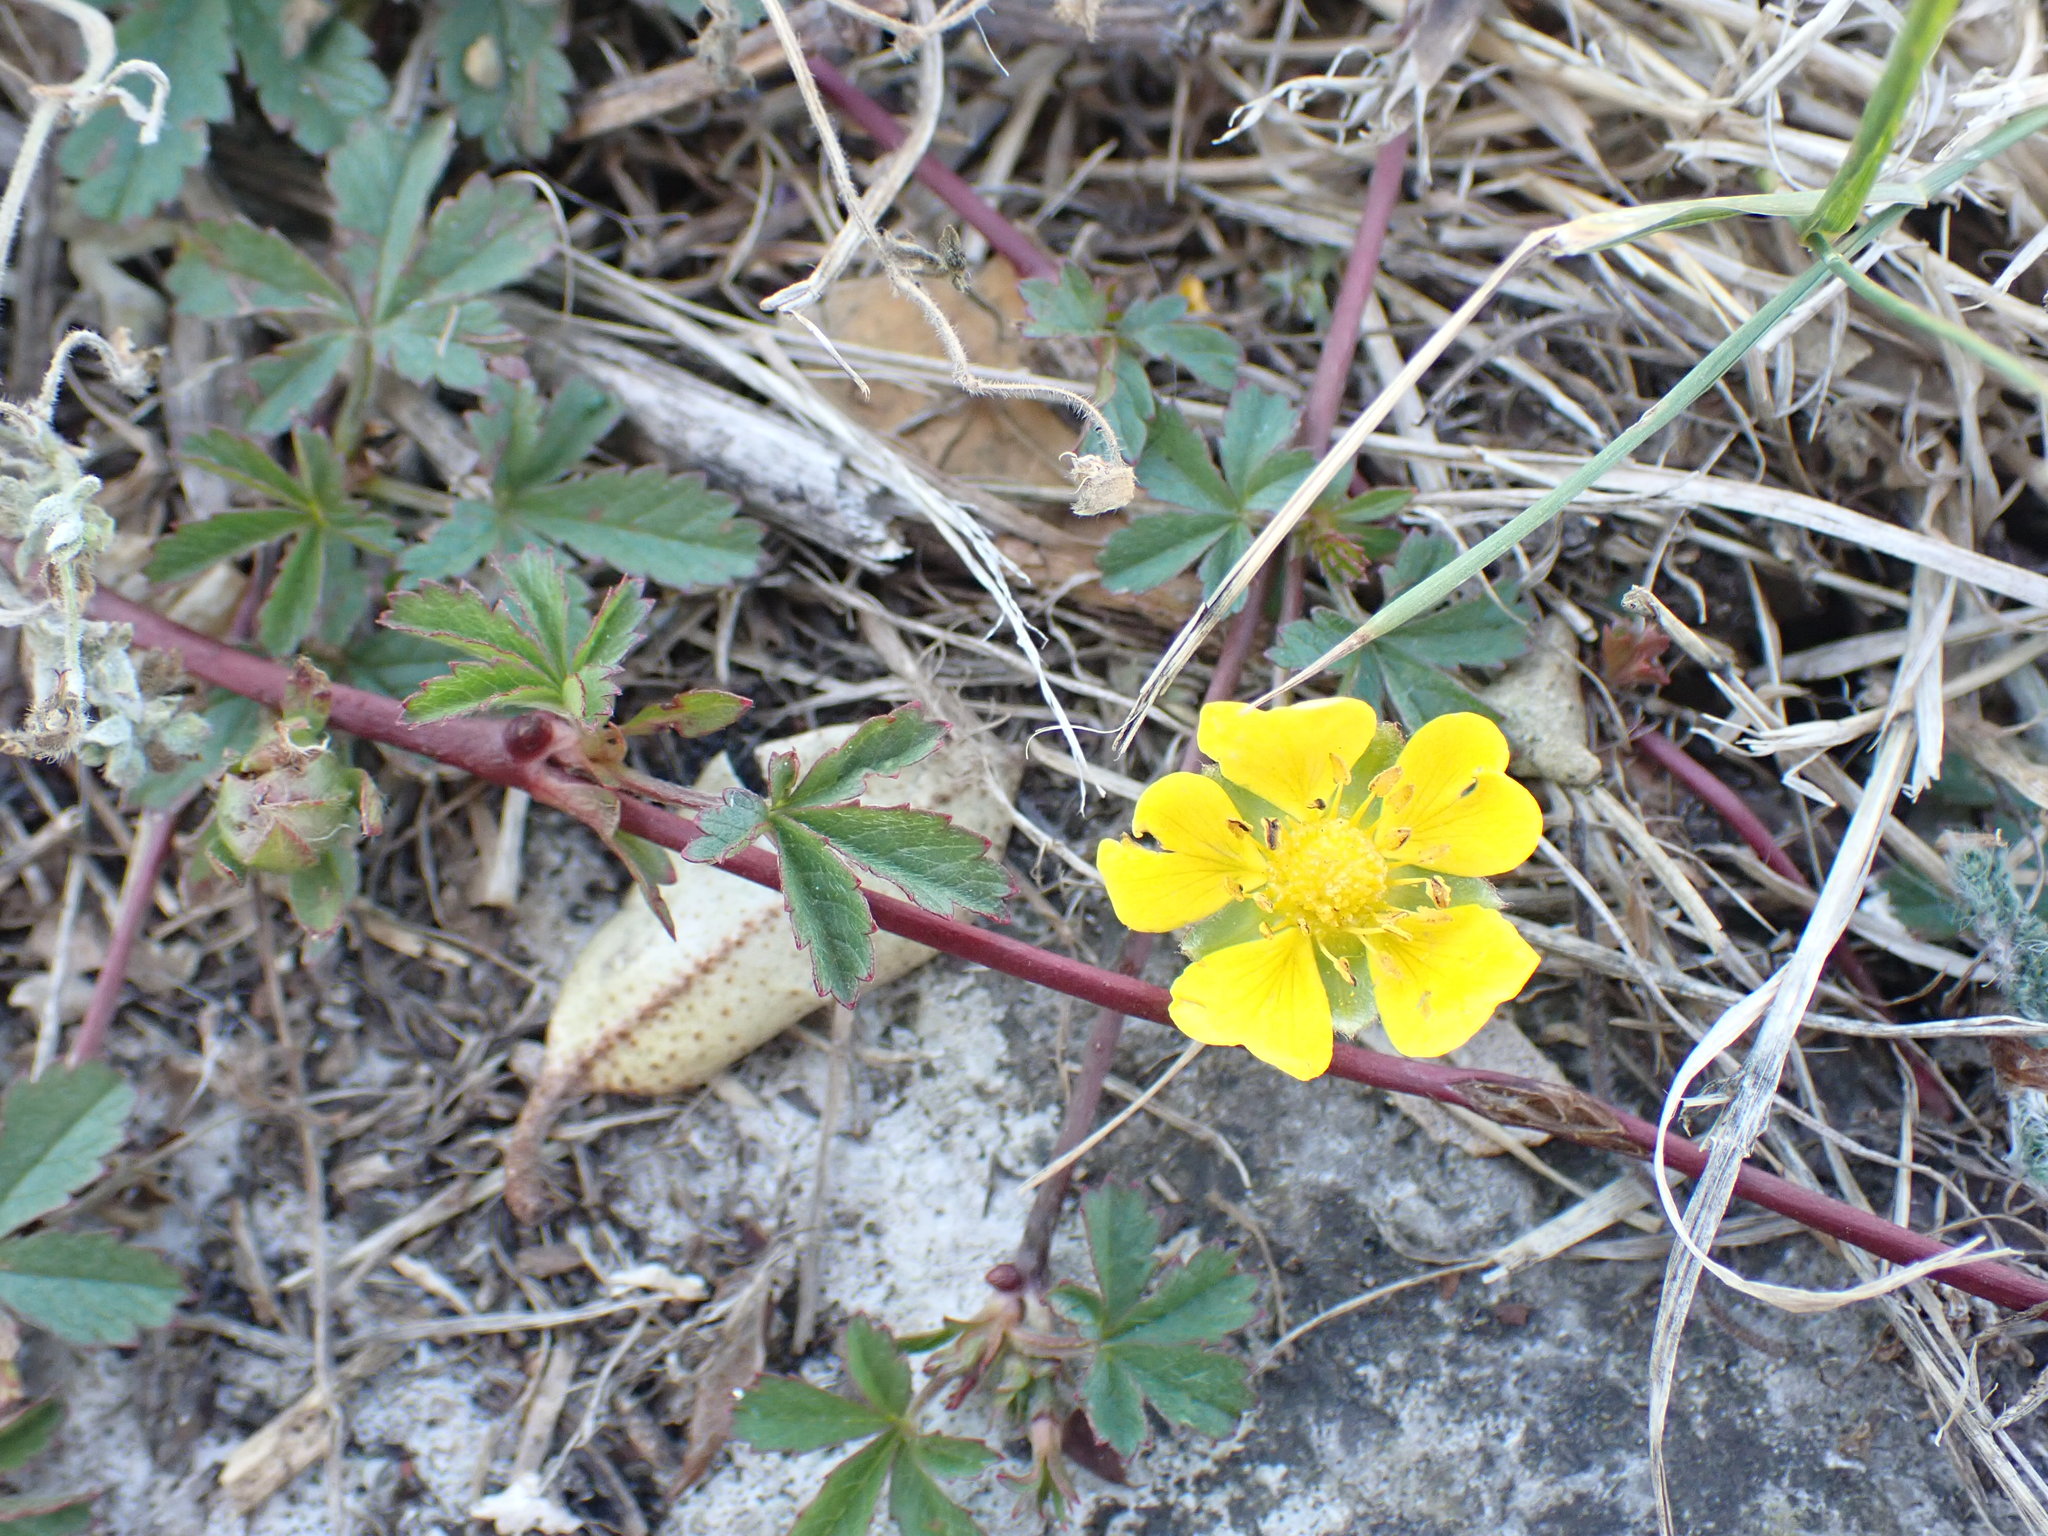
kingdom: Plantae
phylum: Tracheophyta
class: Magnoliopsida
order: Rosales
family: Rosaceae
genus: Potentilla
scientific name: Potentilla reptans
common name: Creeping cinquefoil
